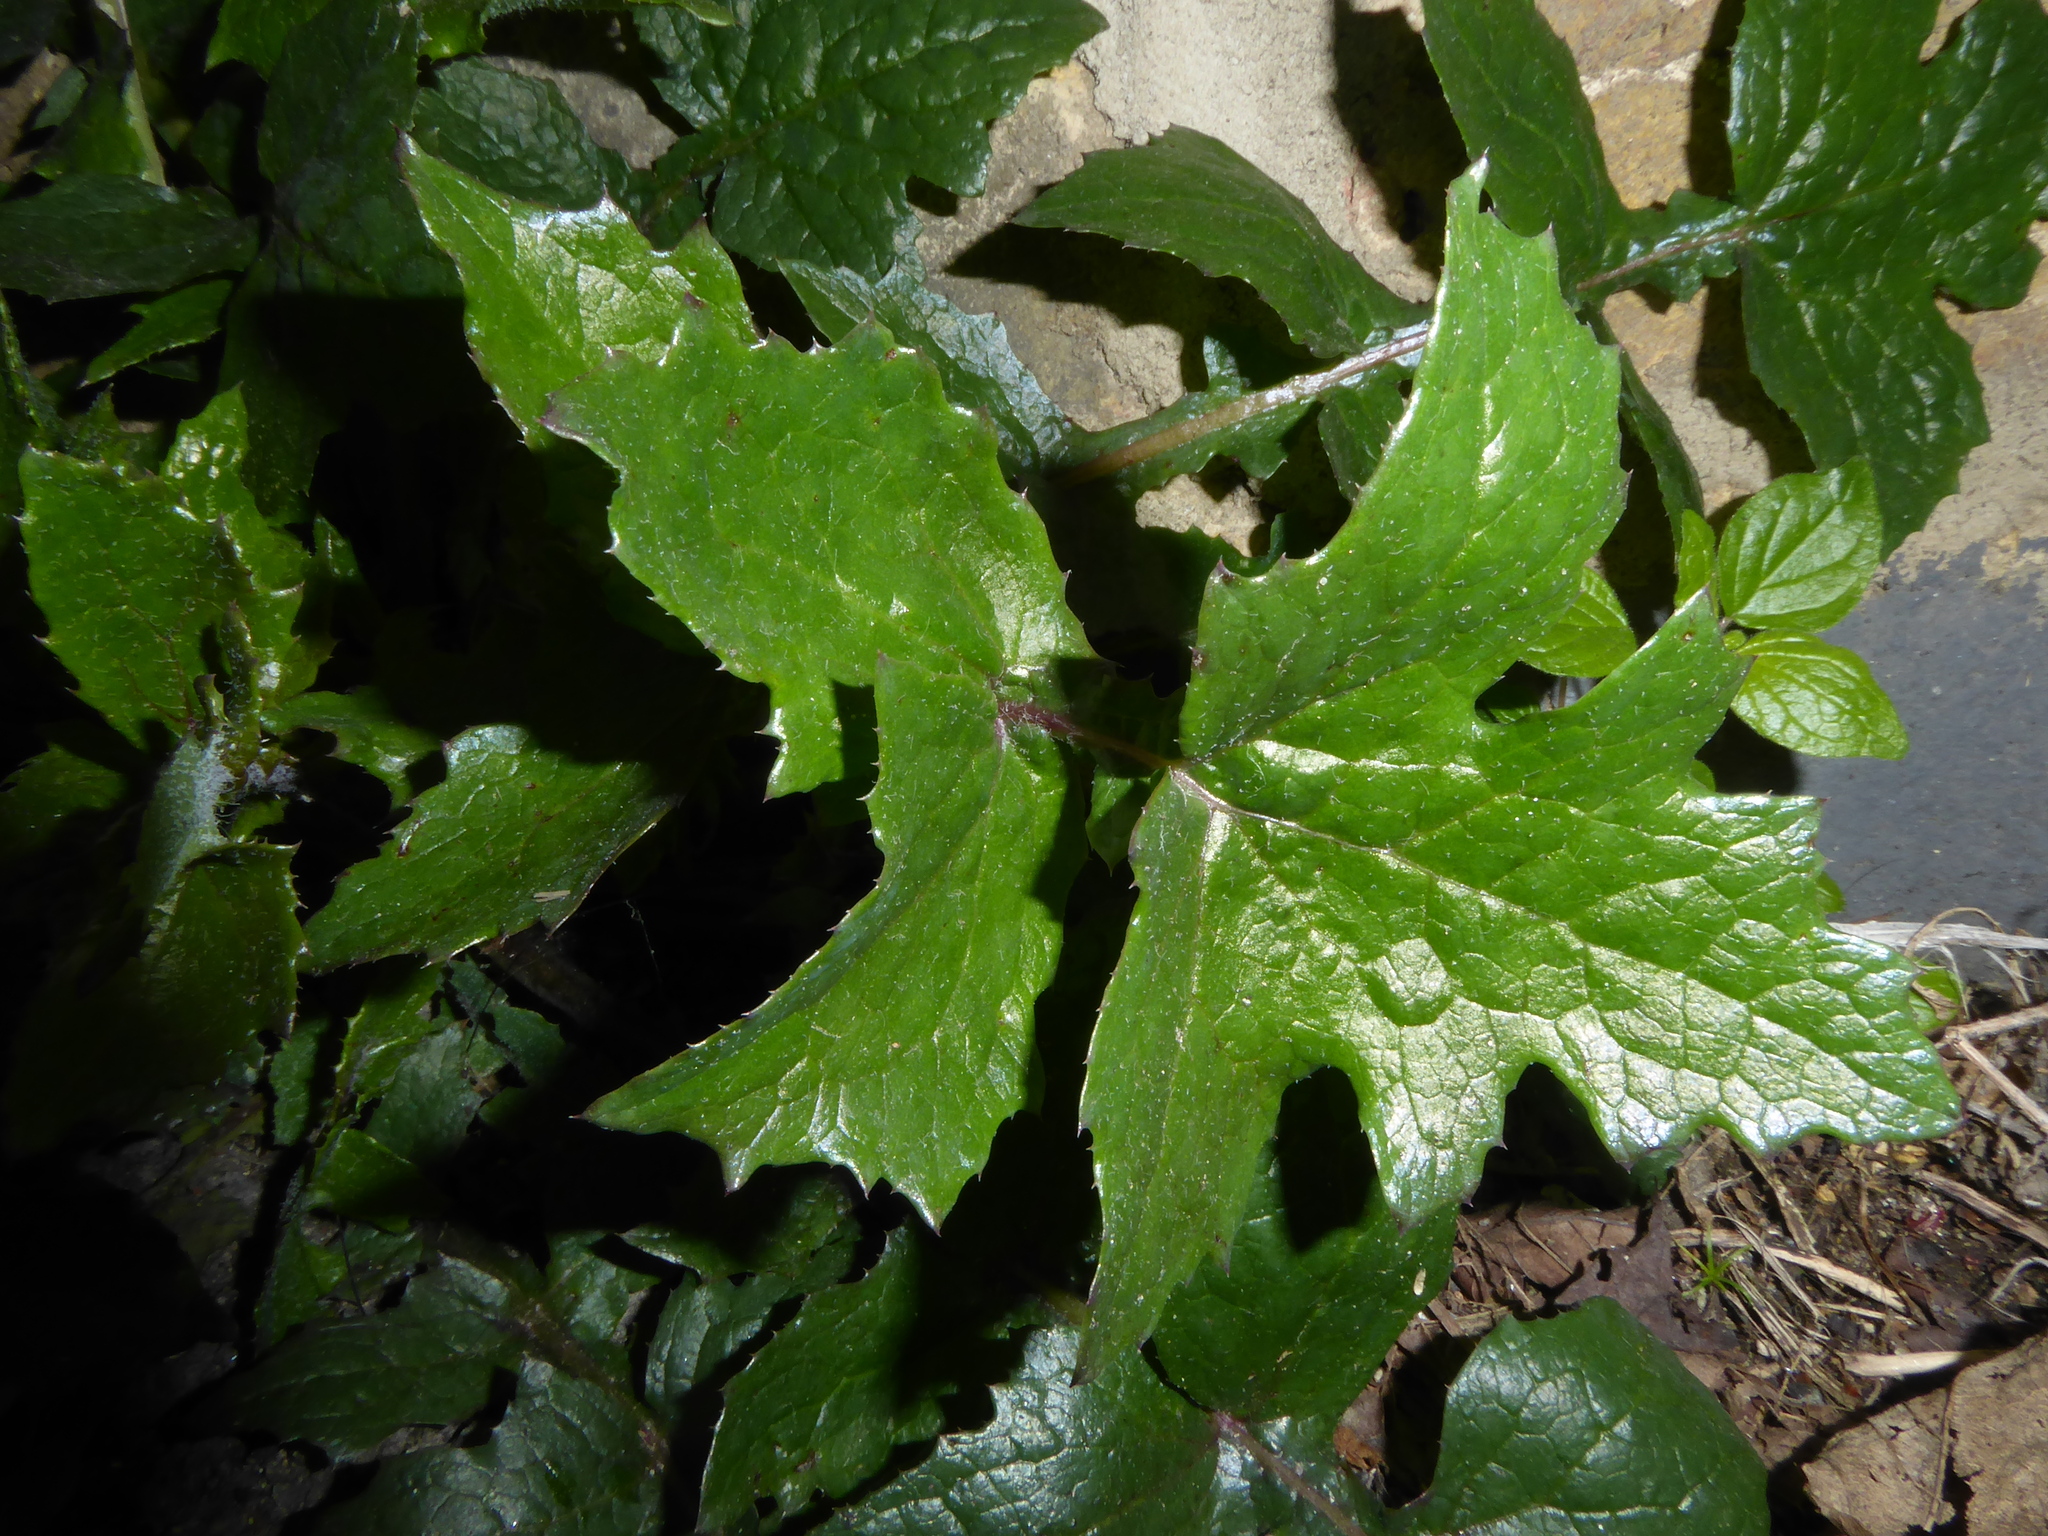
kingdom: Plantae
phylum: Tracheophyta
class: Magnoliopsida
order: Asterales
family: Asteraceae
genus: Sonchus
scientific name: Sonchus oleraceus
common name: Common sowthistle
